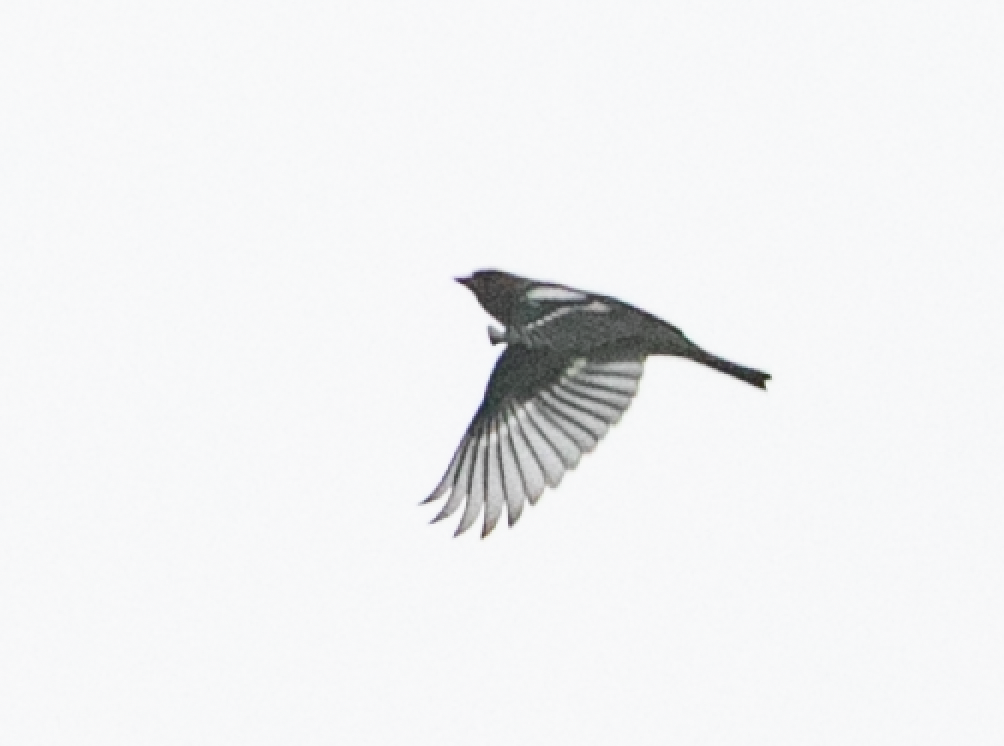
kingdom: Animalia
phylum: Chordata
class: Aves
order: Passeriformes
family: Fringillidae
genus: Fringilla
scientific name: Fringilla coelebs
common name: Common chaffinch
